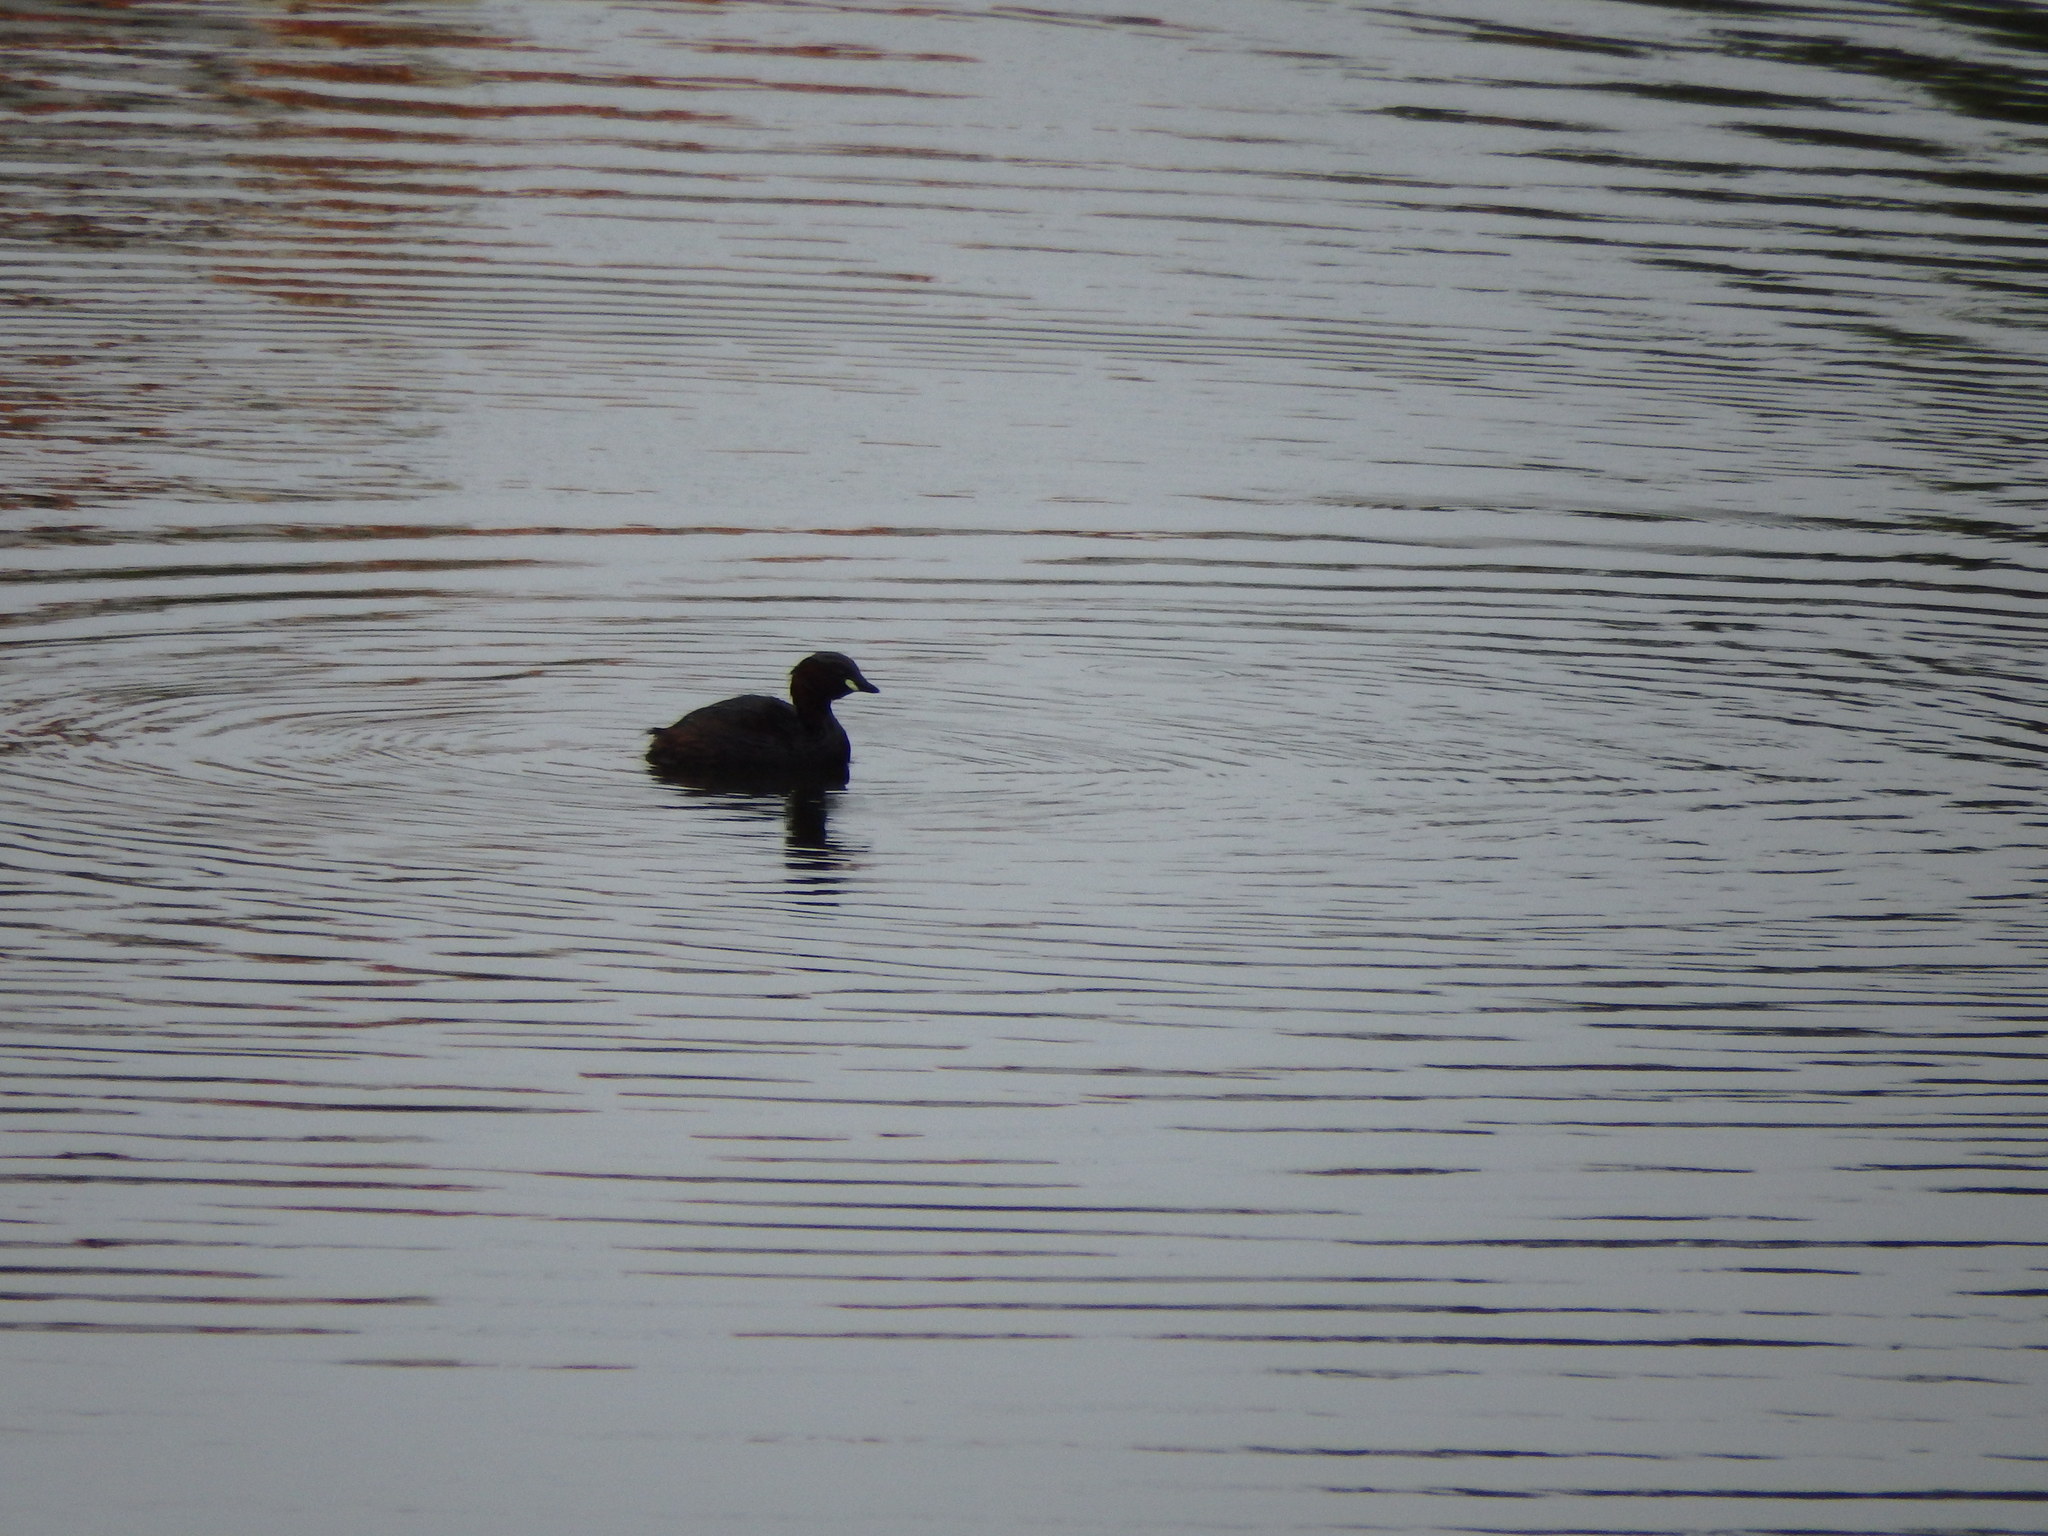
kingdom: Animalia
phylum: Chordata
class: Aves
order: Podicipediformes
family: Podicipedidae
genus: Tachybaptus
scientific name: Tachybaptus ruficollis
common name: Little grebe
